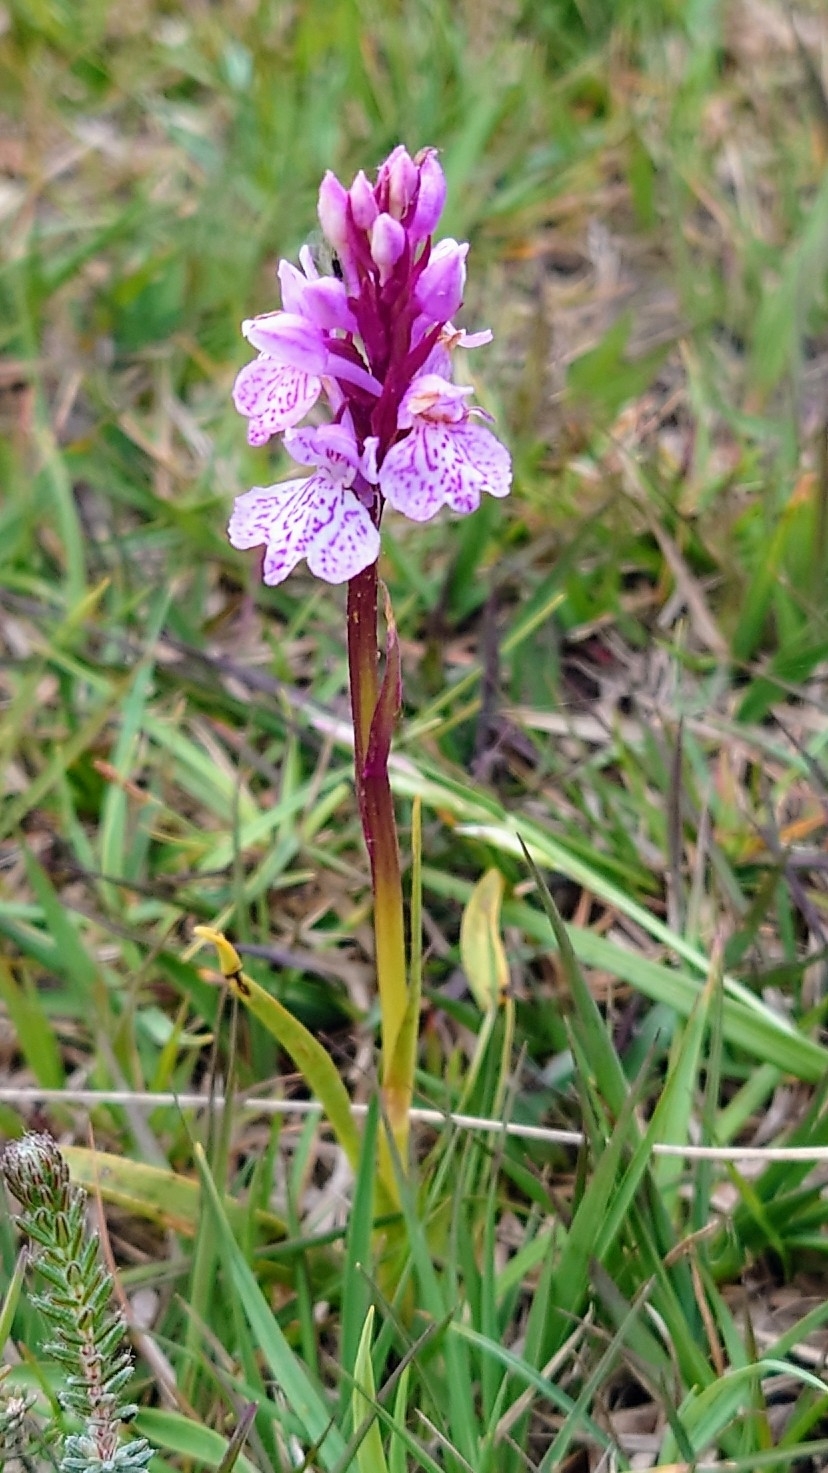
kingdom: Plantae
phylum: Tracheophyta
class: Liliopsida
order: Asparagales
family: Orchidaceae
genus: Dactylorhiza
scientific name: Dactylorhiza maculata
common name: Heath spotted-orchid
